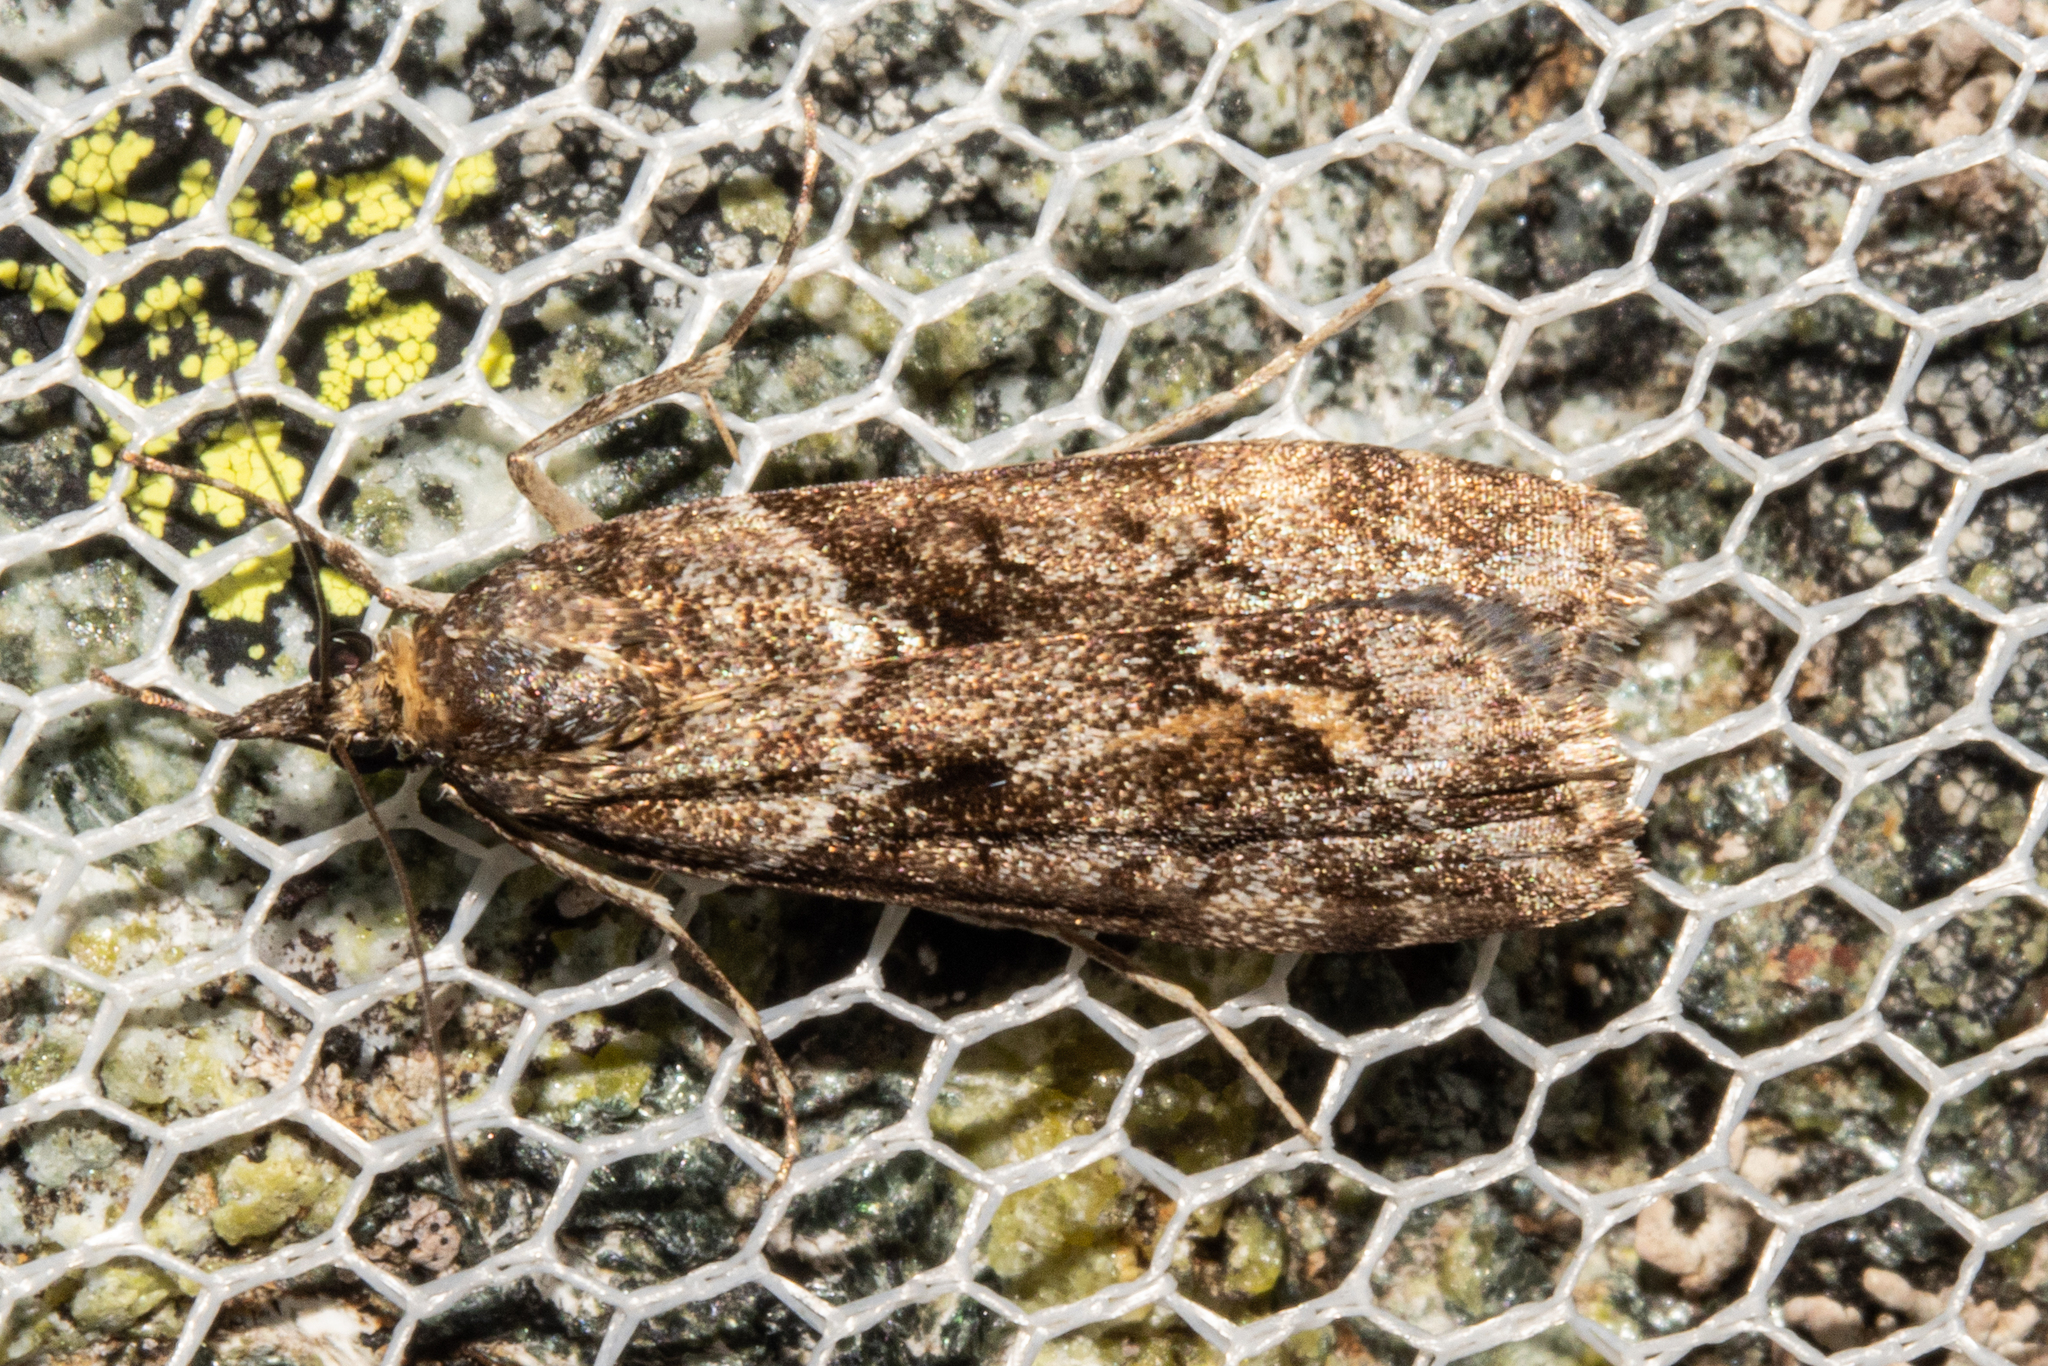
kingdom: Animalia
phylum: Arthropoda
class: Insecta
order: Lepidoptera
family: Crambidae
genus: Eudonia
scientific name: Eudonia submarginalis
